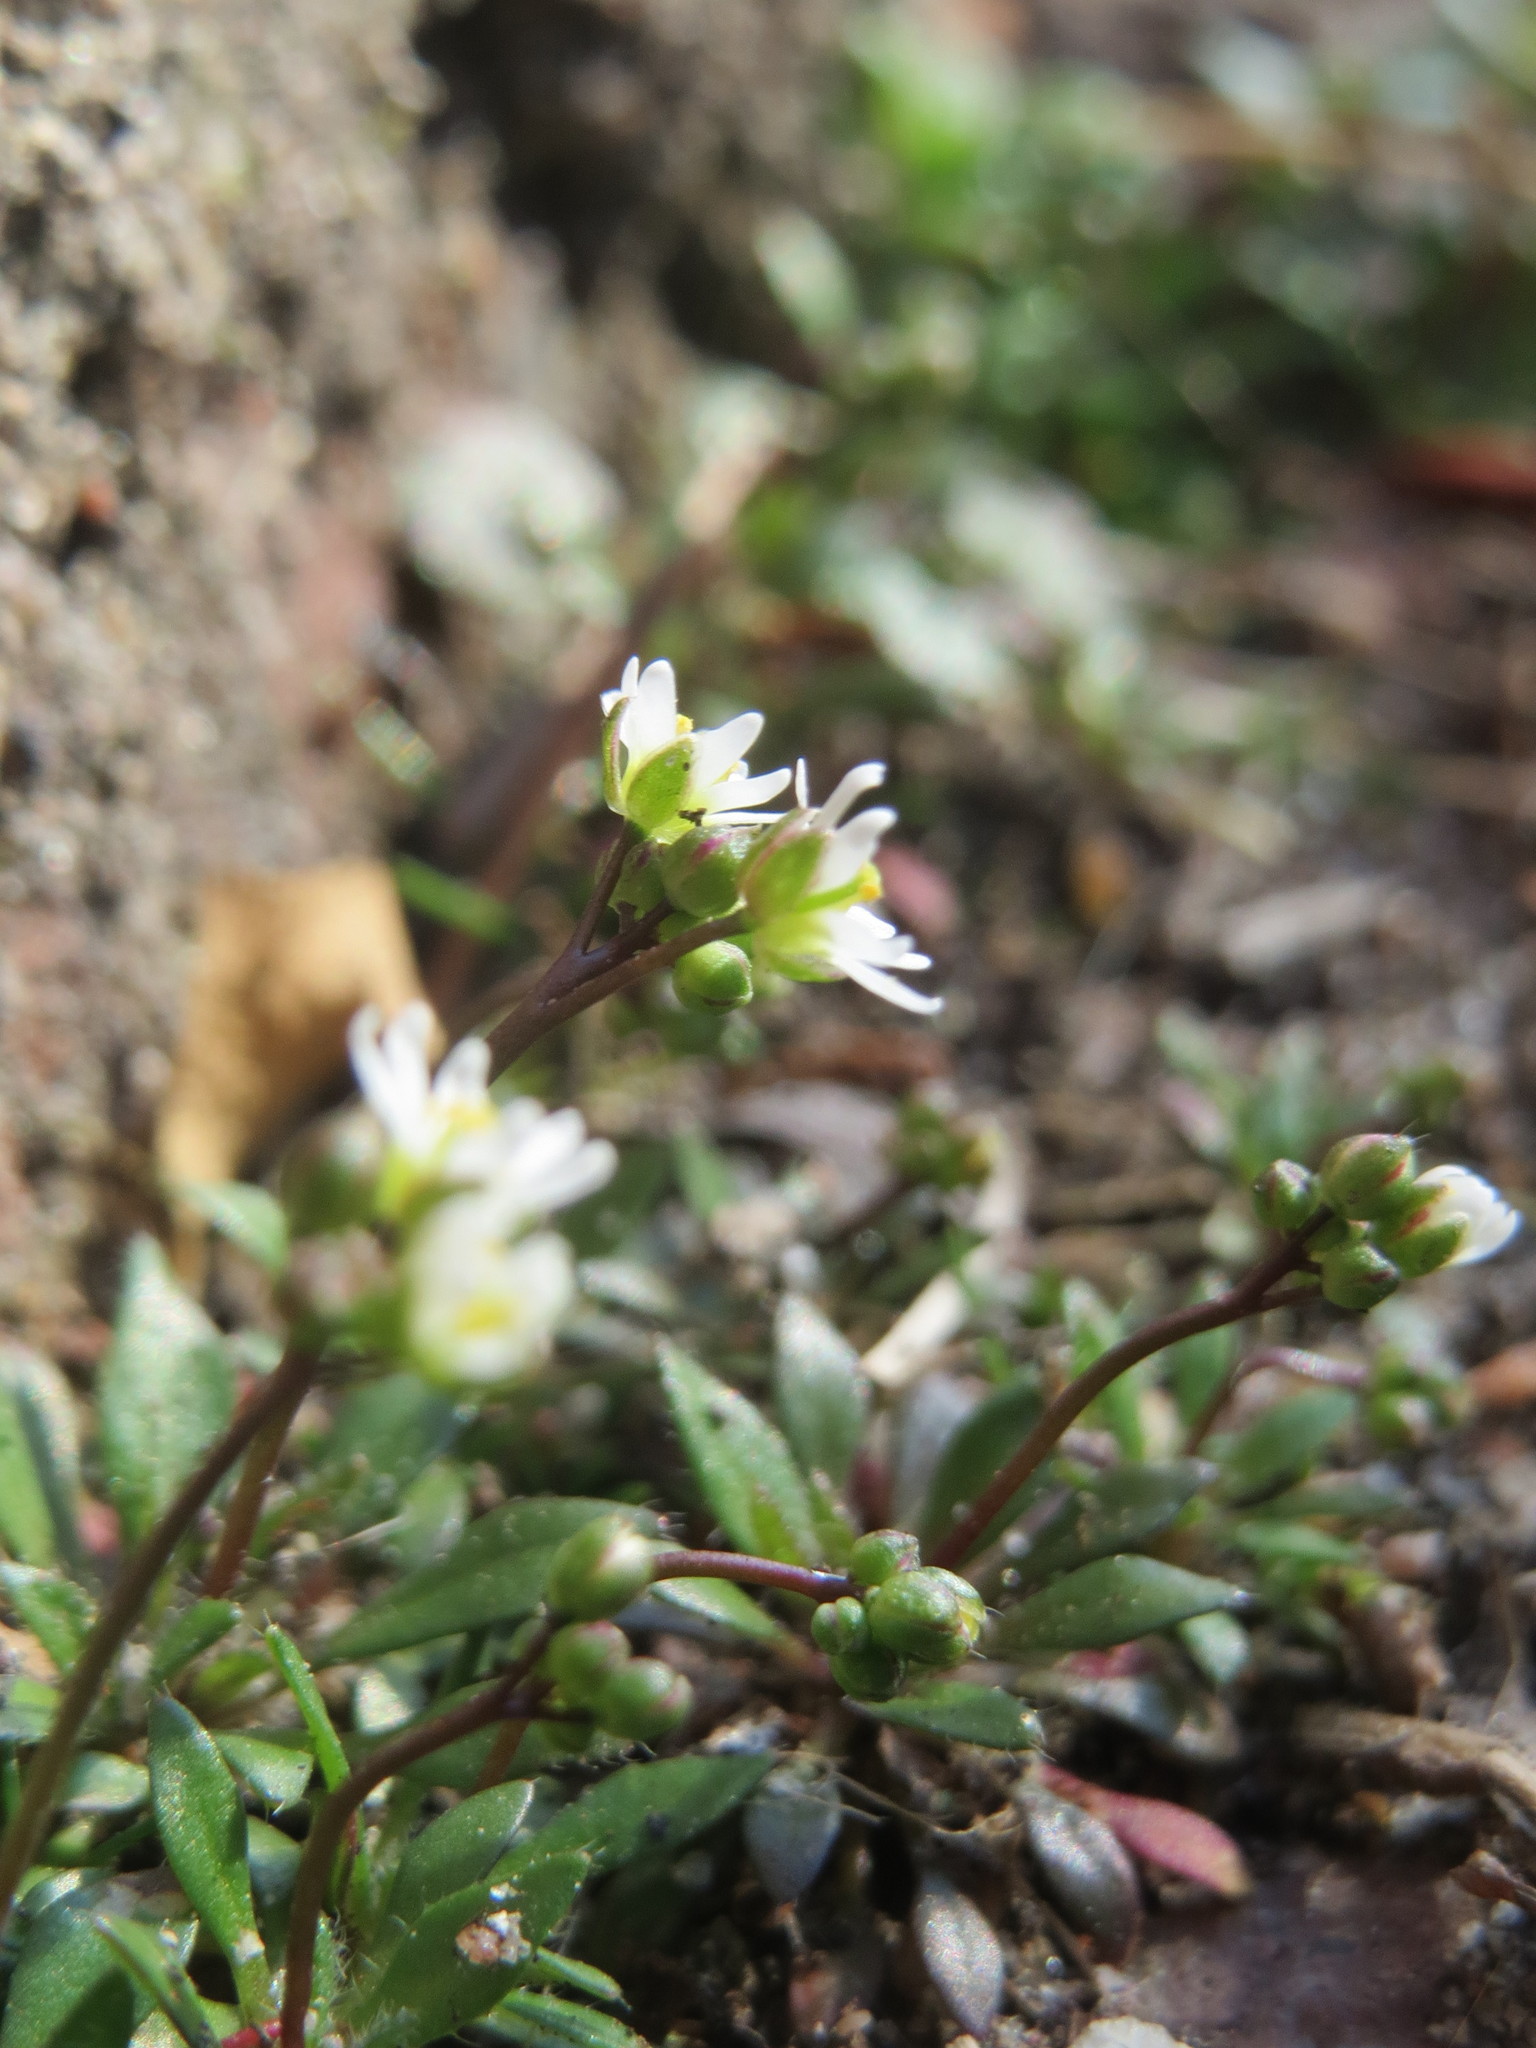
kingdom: Plantae
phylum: Tracheophyta
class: Magnoliopsida
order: Brassicales
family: Brassicaceae
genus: Draba
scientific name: Draba
